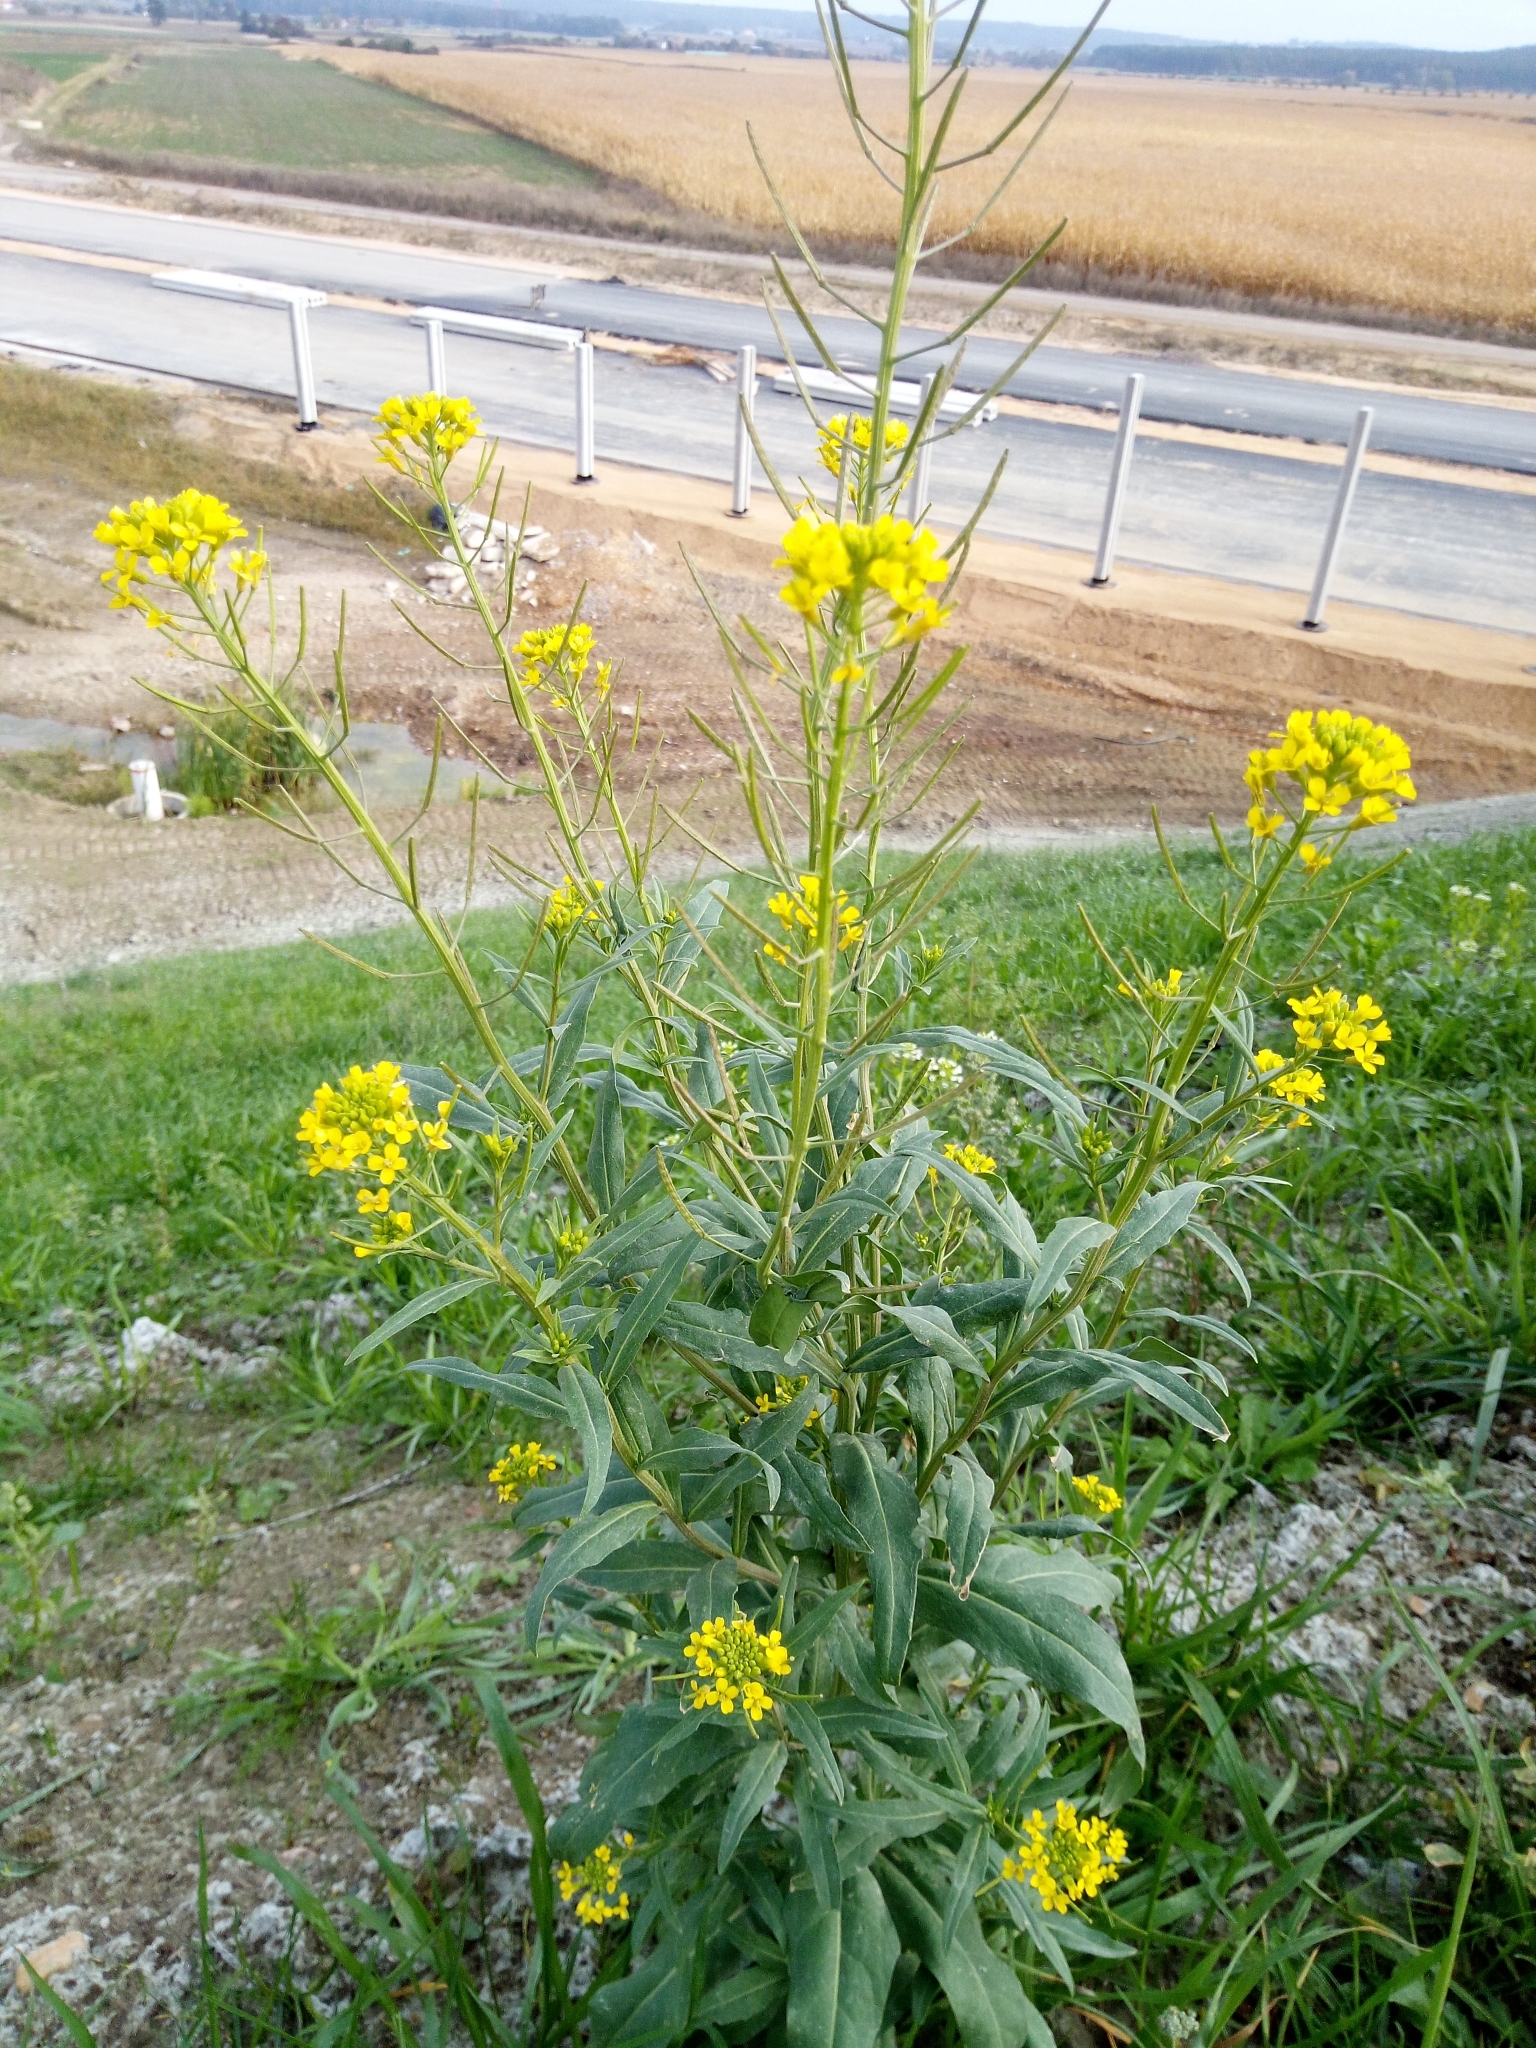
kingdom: Plantae
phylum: Tracheophyta
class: Magnoliopsida
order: Brassicales
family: Brassicaceae
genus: Erysimum
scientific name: Erysimum cheiranthoides
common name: Treacle mustard
